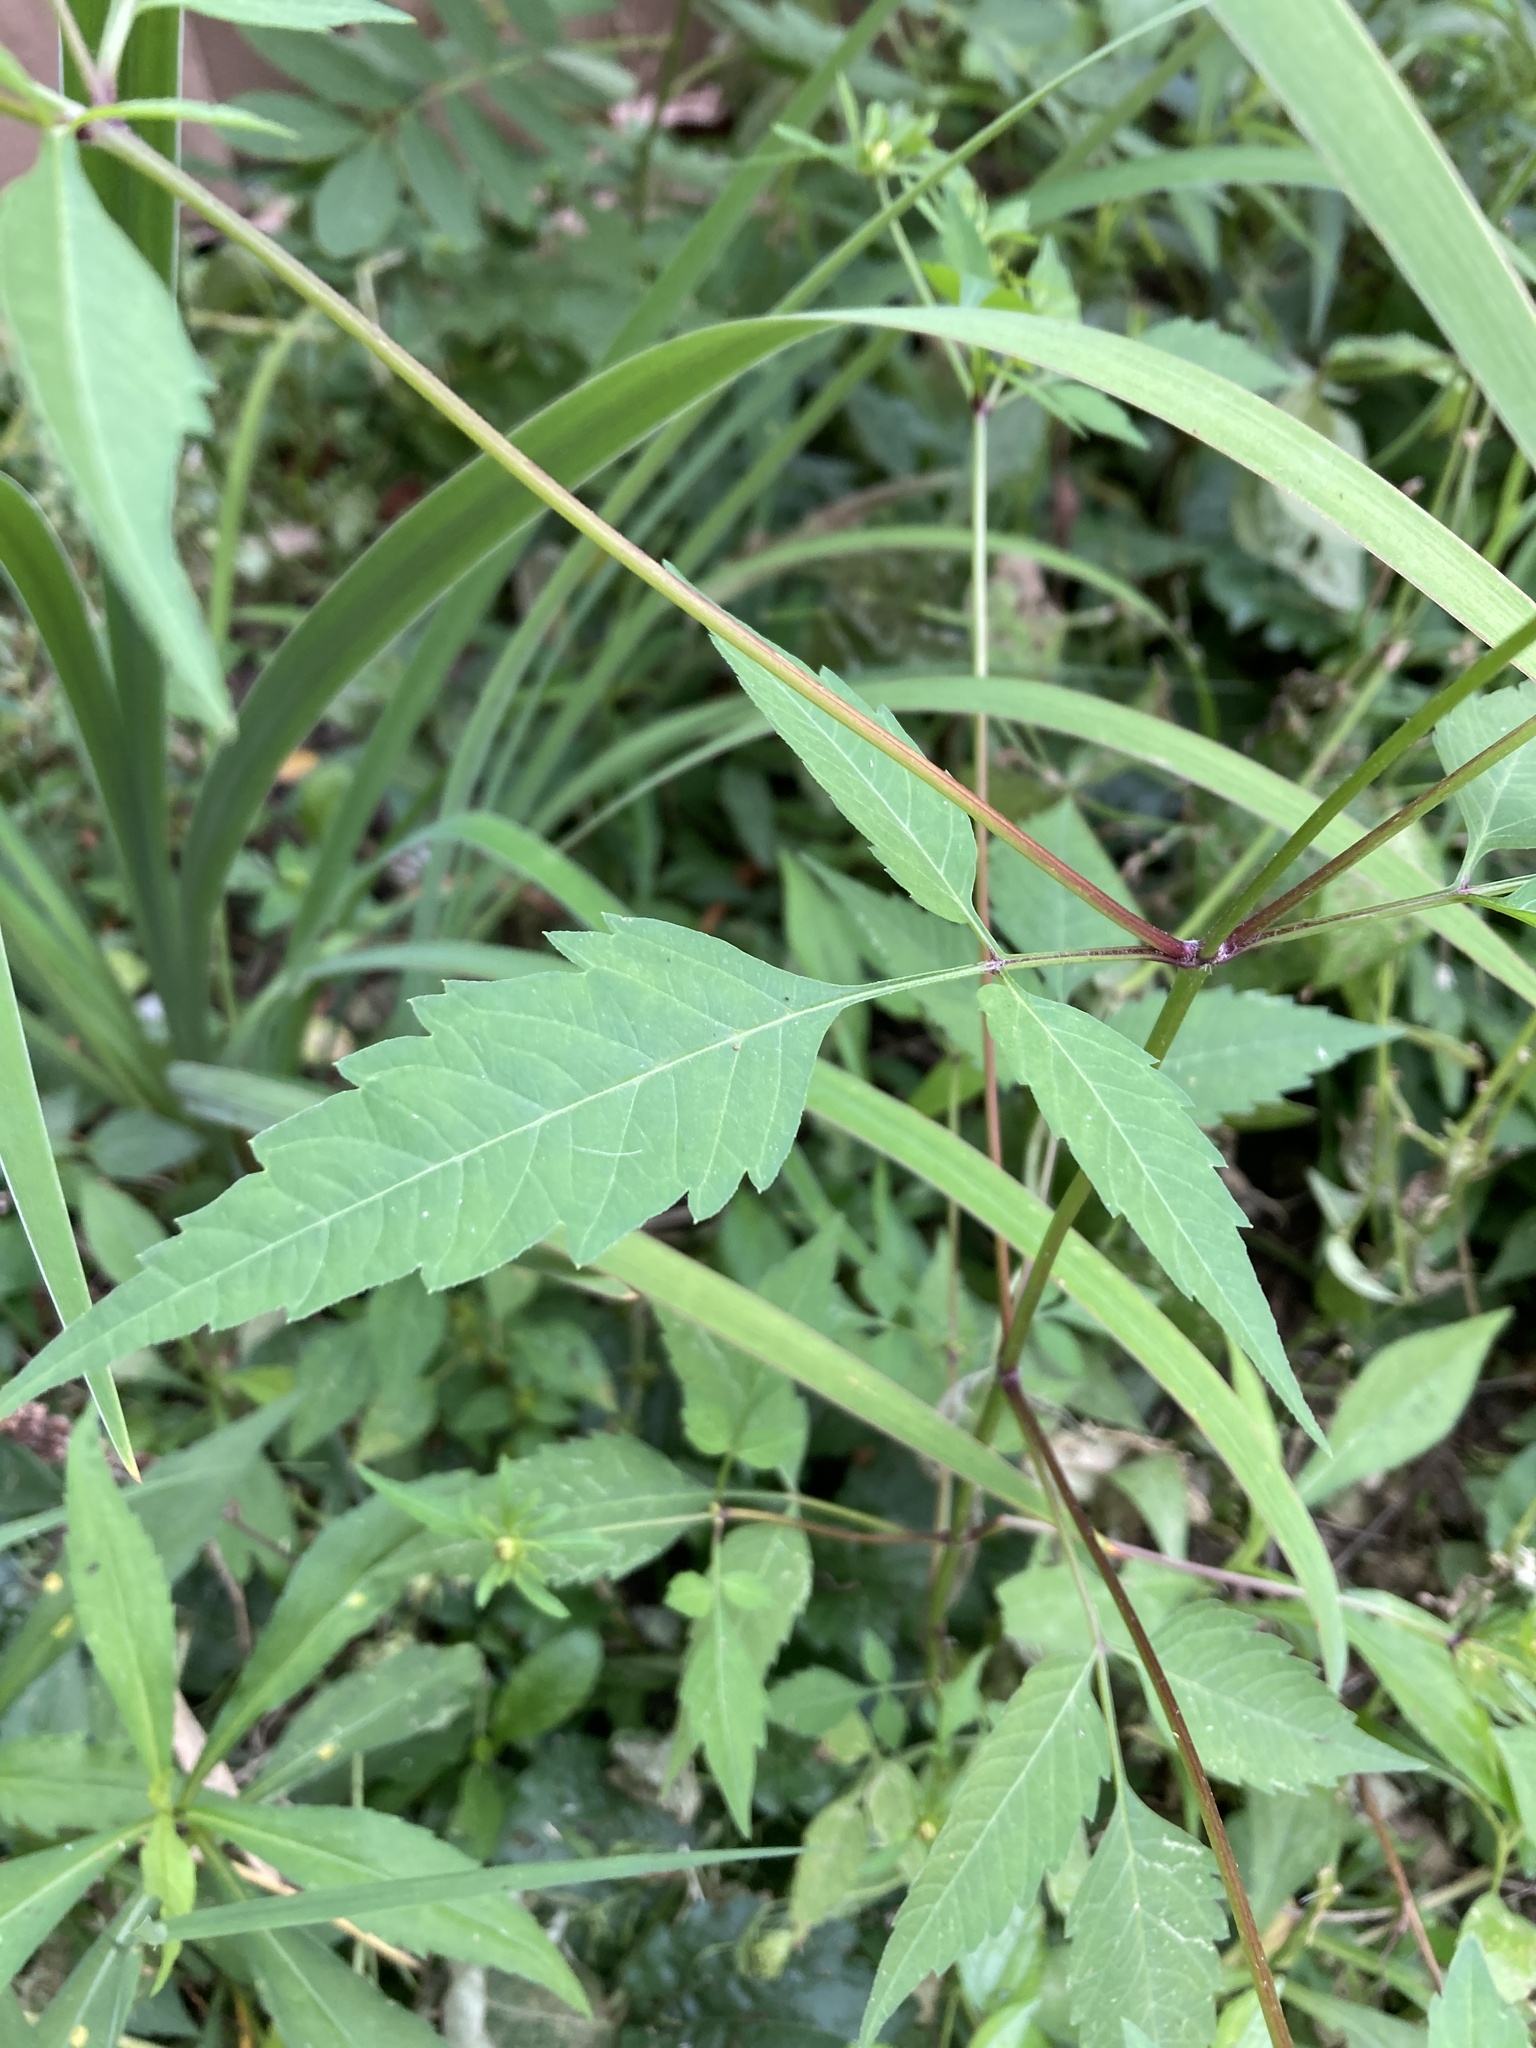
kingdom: Plantae
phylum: Tracheophyta
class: Magnoliopsida
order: Asterales
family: Asteraceae
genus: Bidens
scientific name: Bidens vulgata
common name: Tall beggarticks
